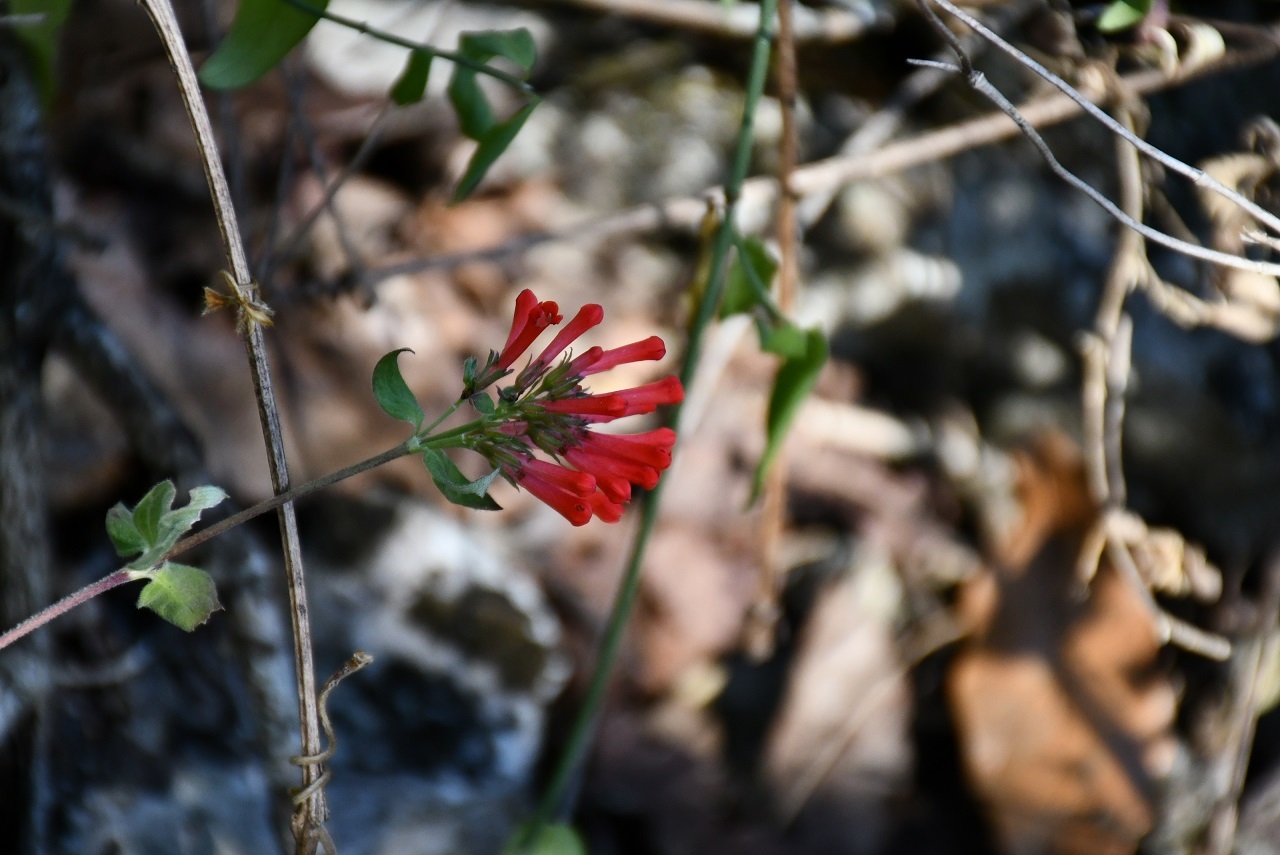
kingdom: Plantae
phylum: Tracheophyta
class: Magnoliopsida
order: Gentianales
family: Rubiaceae
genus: Bouvardia
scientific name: Bouvardia leiantha
